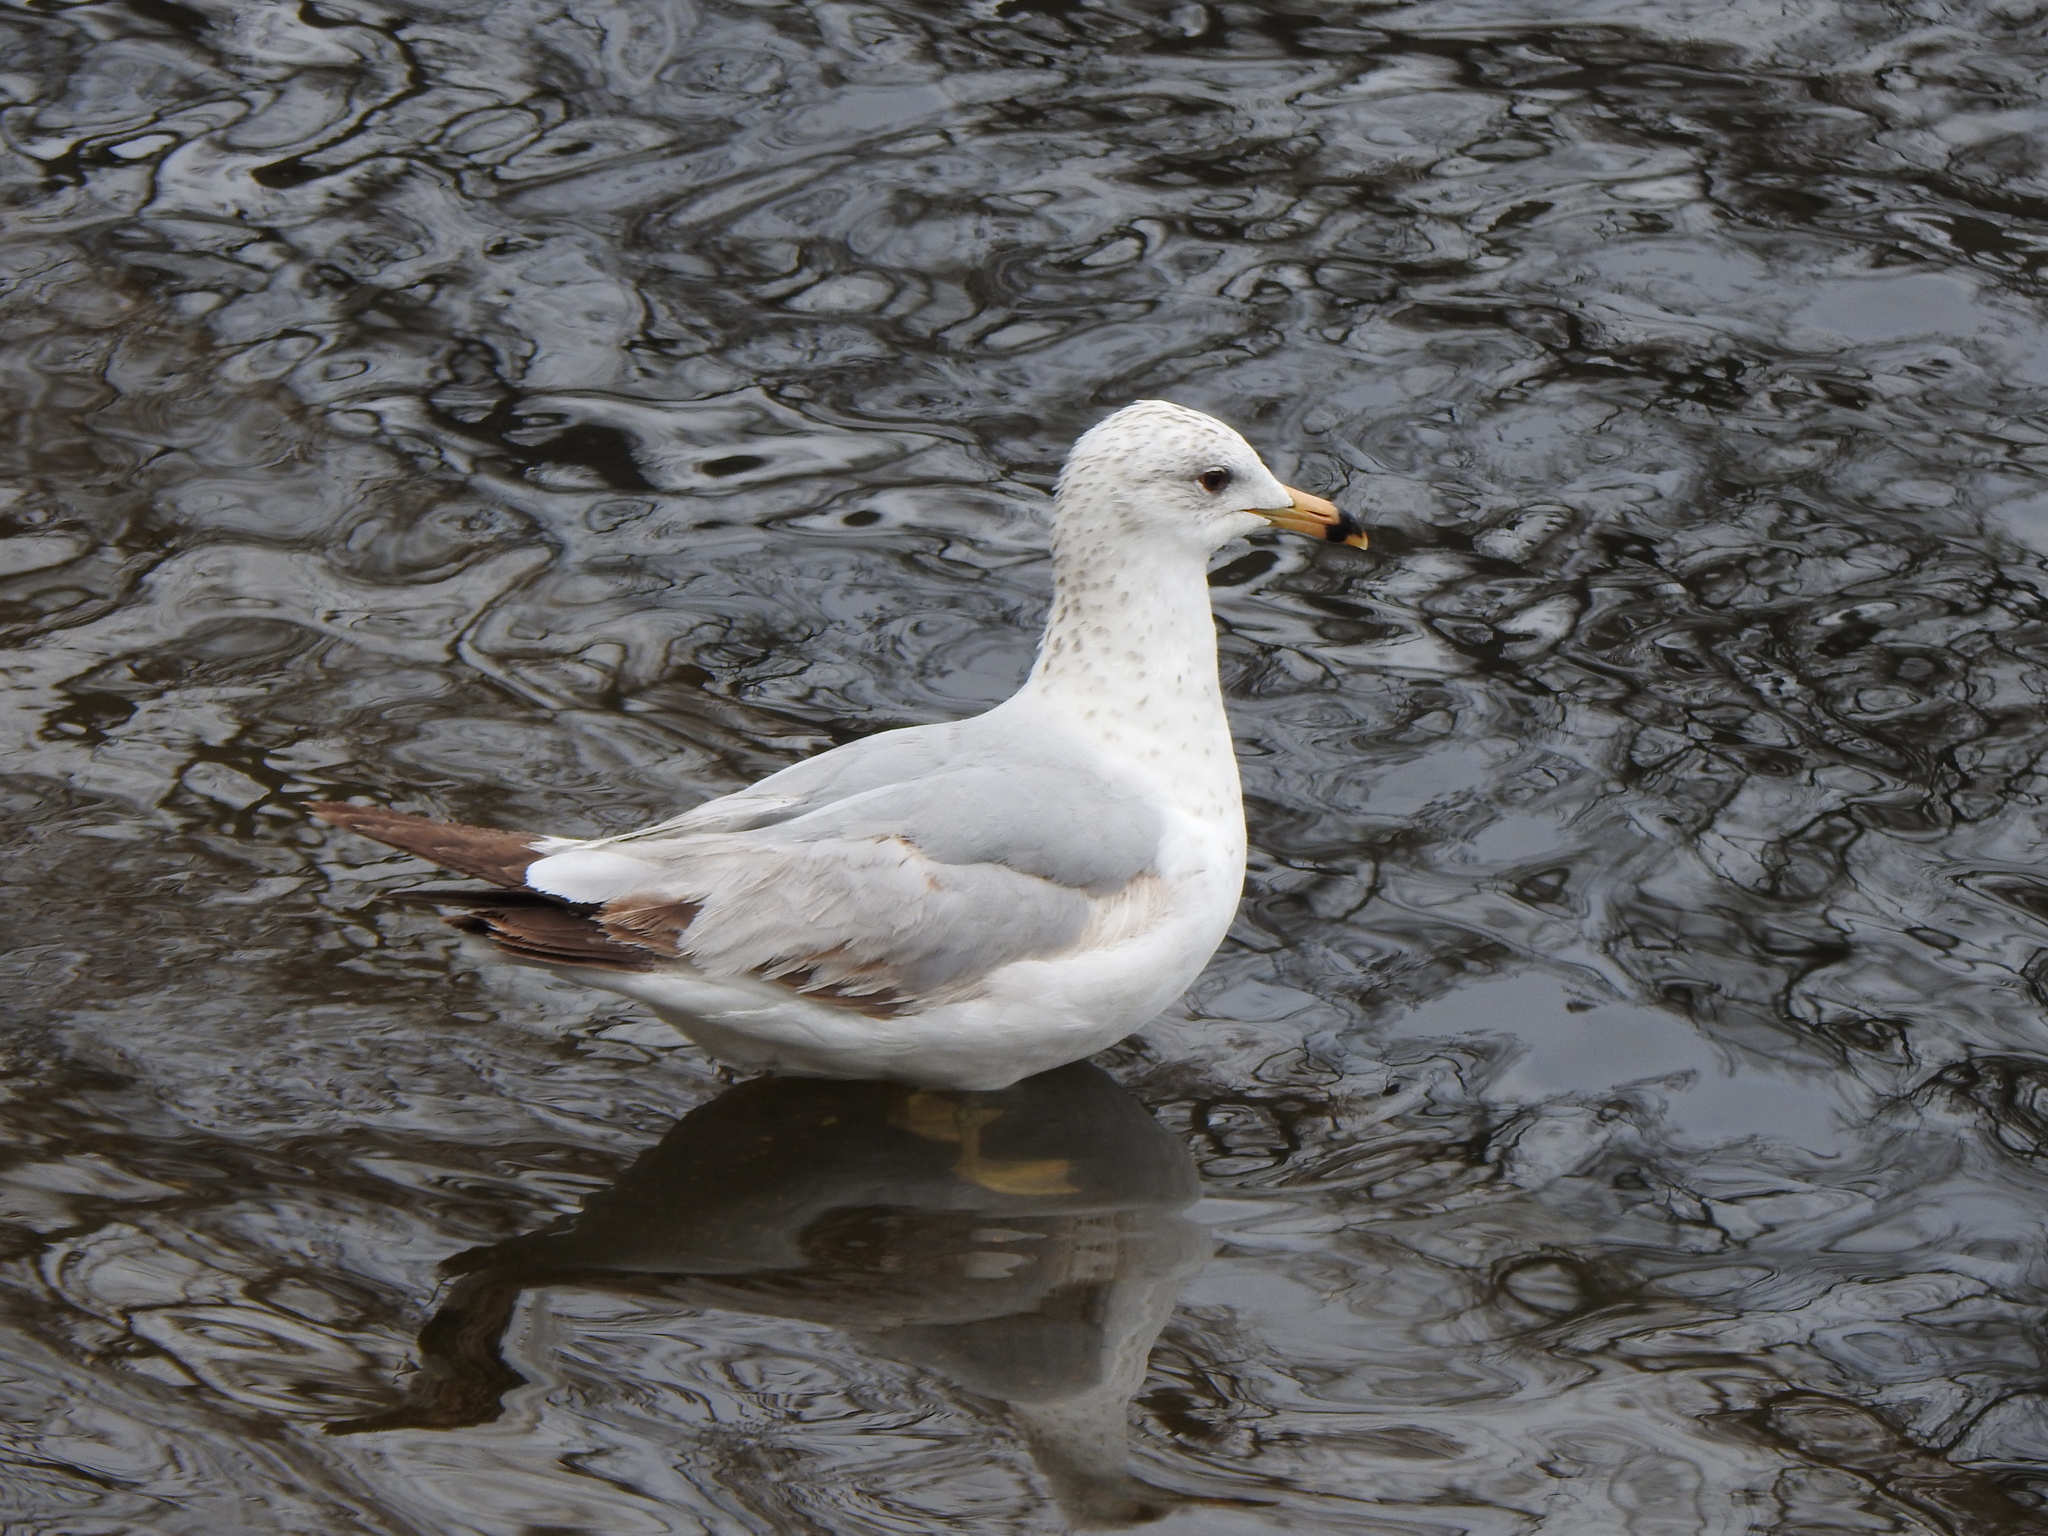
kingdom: Animalia
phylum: Chordata
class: Aves
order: Charadriiformes
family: Laridae
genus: Larus
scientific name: Larus delawarensis
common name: Ring-billed gull
